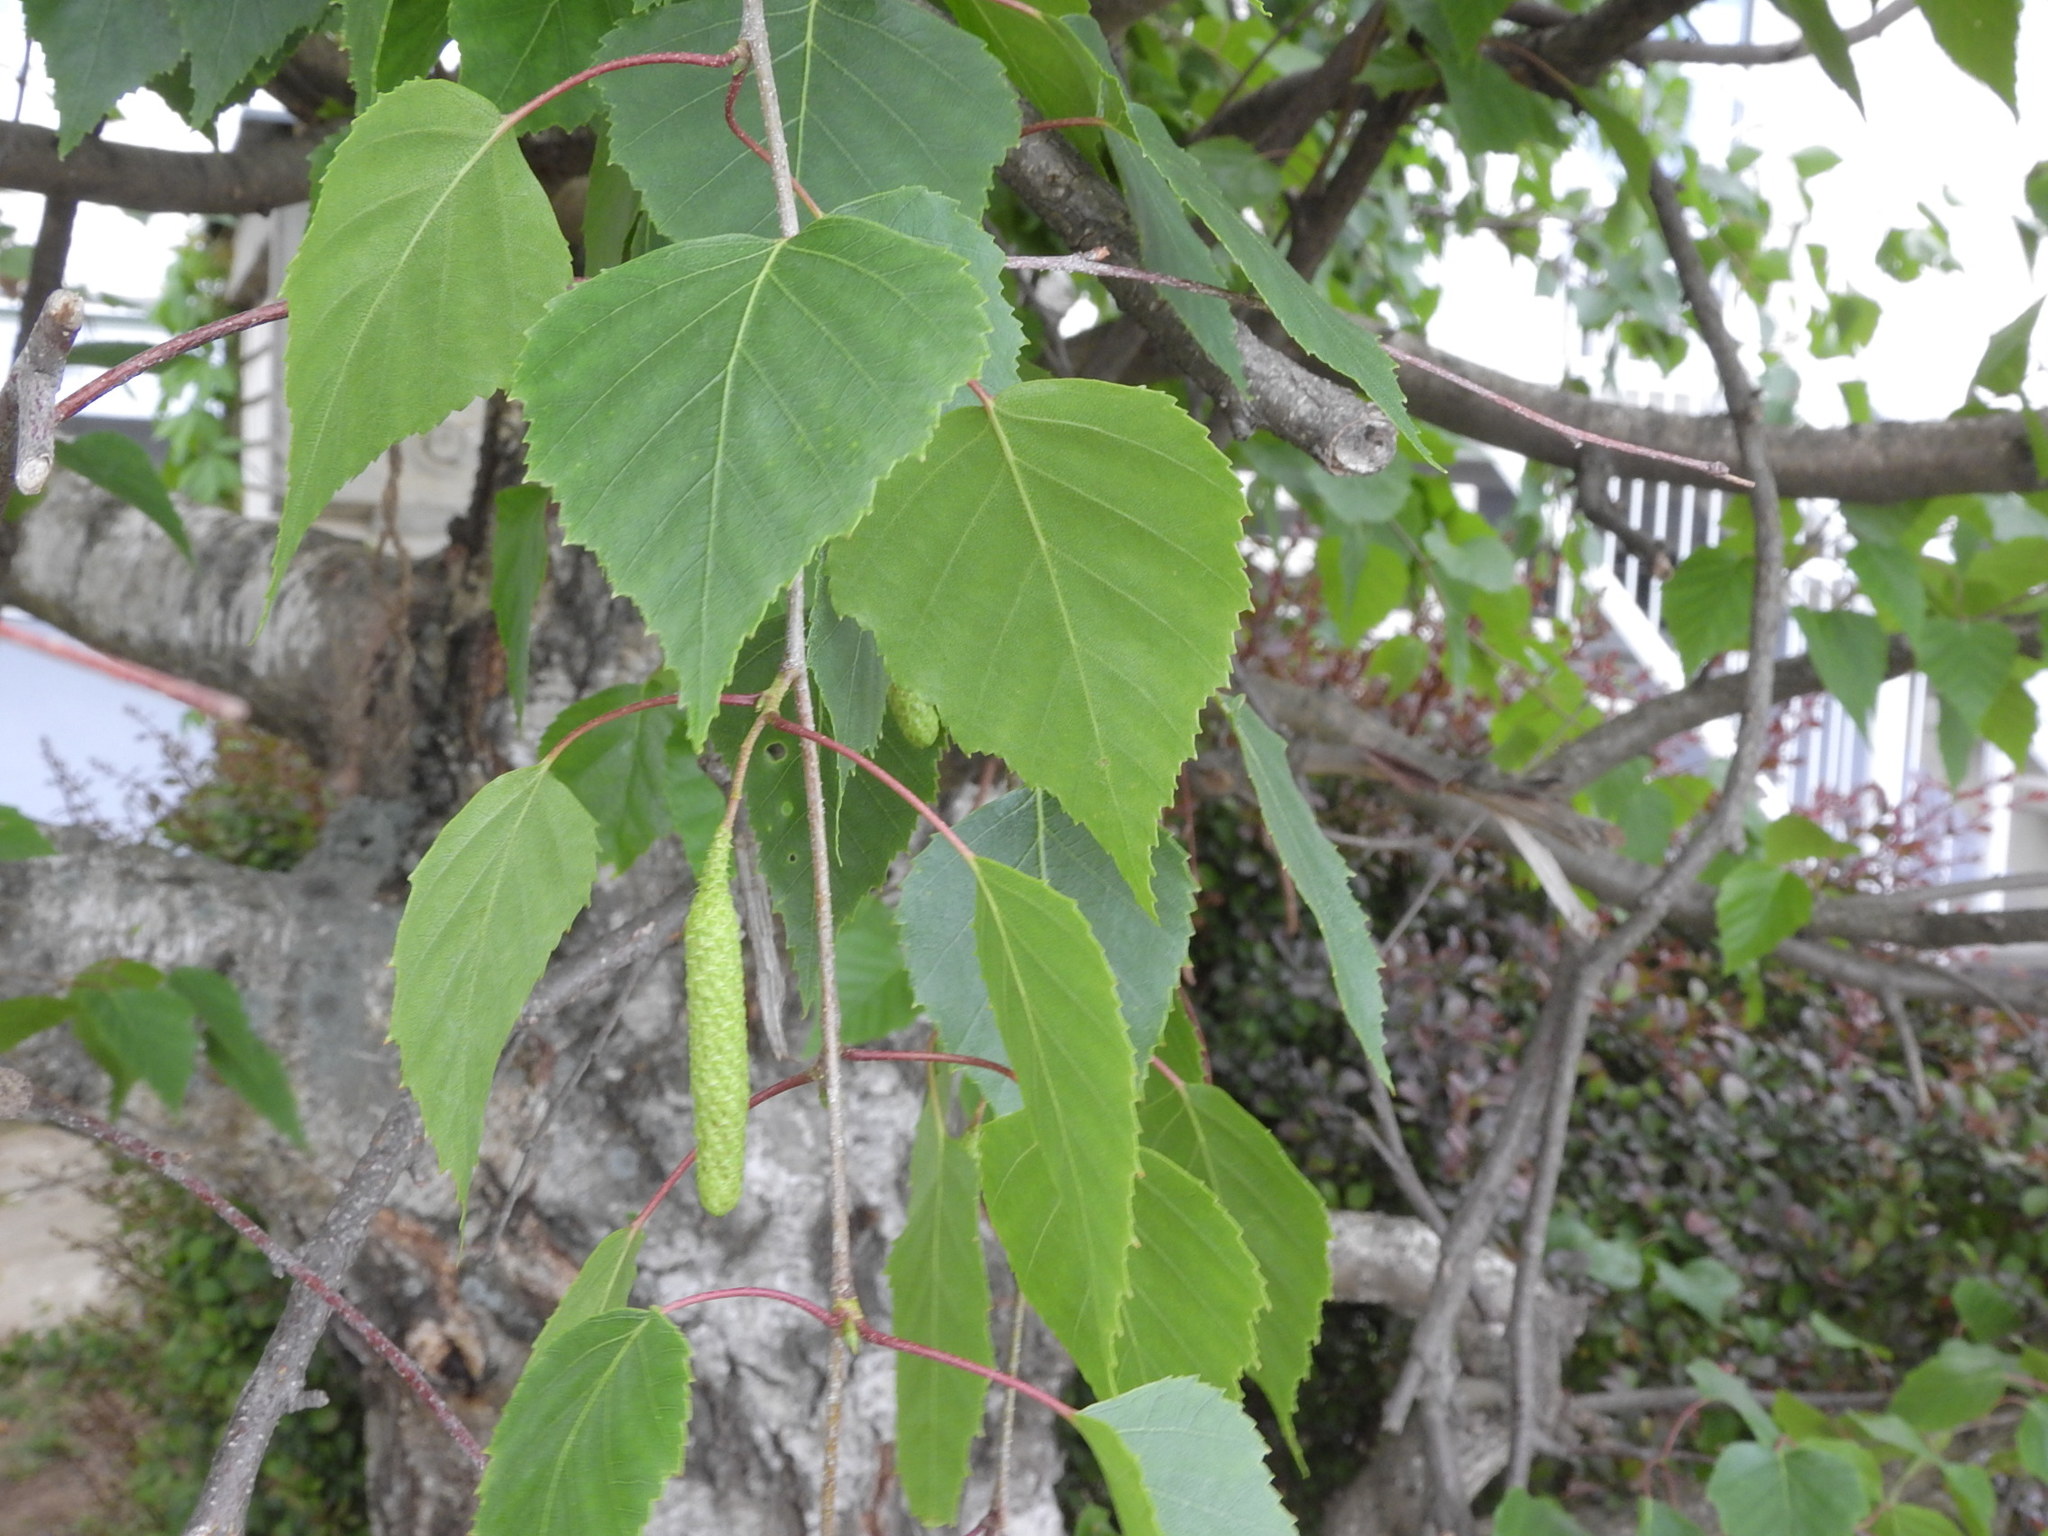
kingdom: Plantae
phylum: Tracheophyta
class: Magnoliopsida
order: Fagales
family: Betulaceae
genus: Betula
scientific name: Betula pendula
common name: Silver birch
